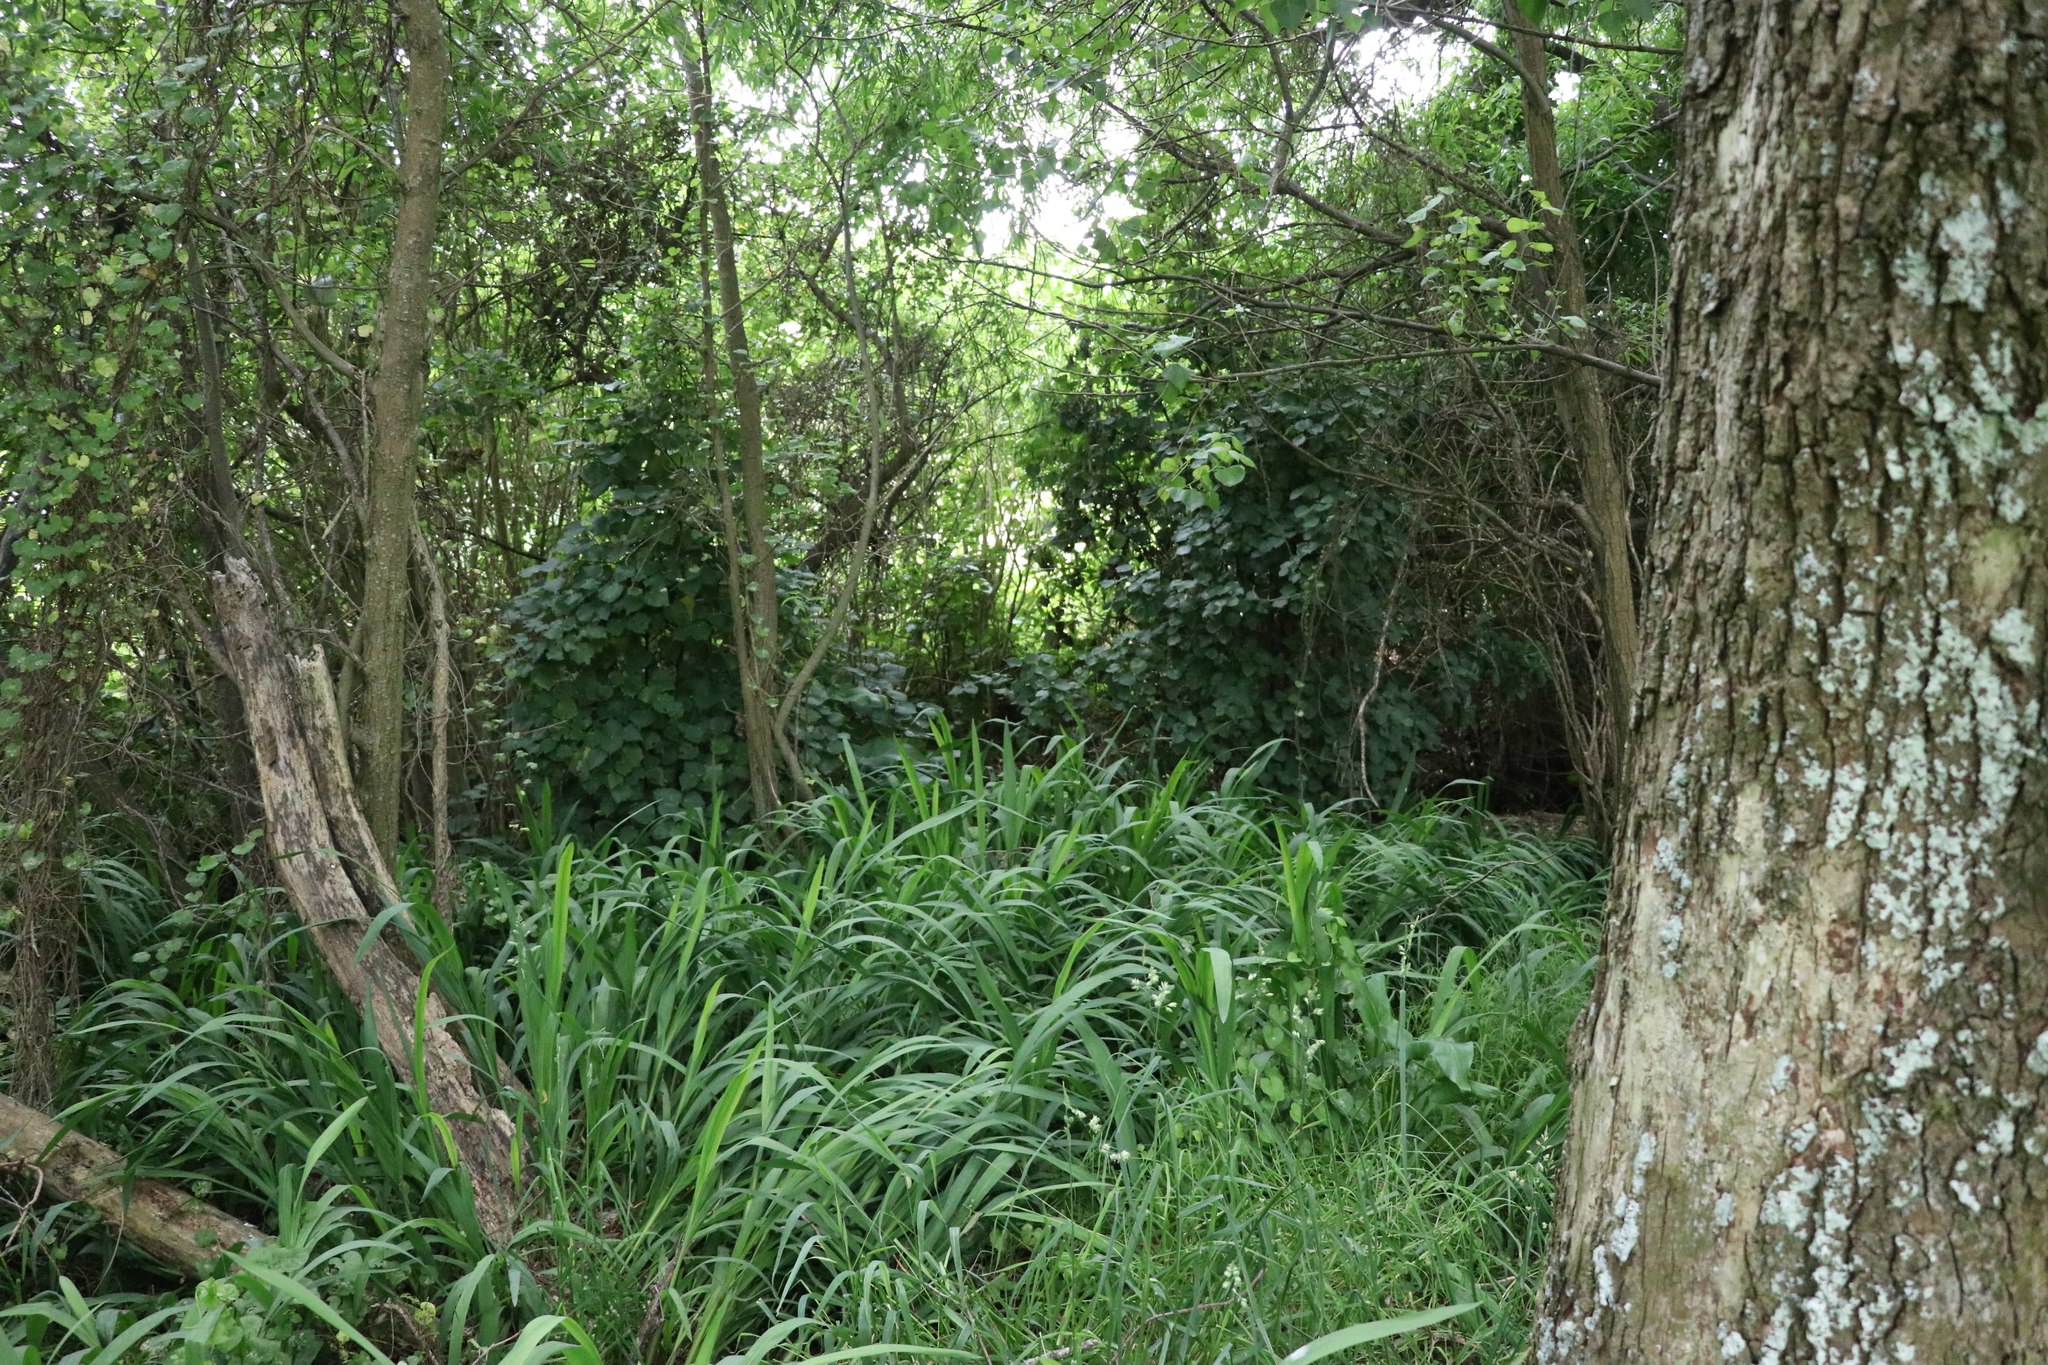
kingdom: Plantae
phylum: Tracheophyta
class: Liliopsida
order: Asparagales
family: Iridaceae
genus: Crocosmia
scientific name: Crocosmia crocosmiiflora
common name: Montbretia
